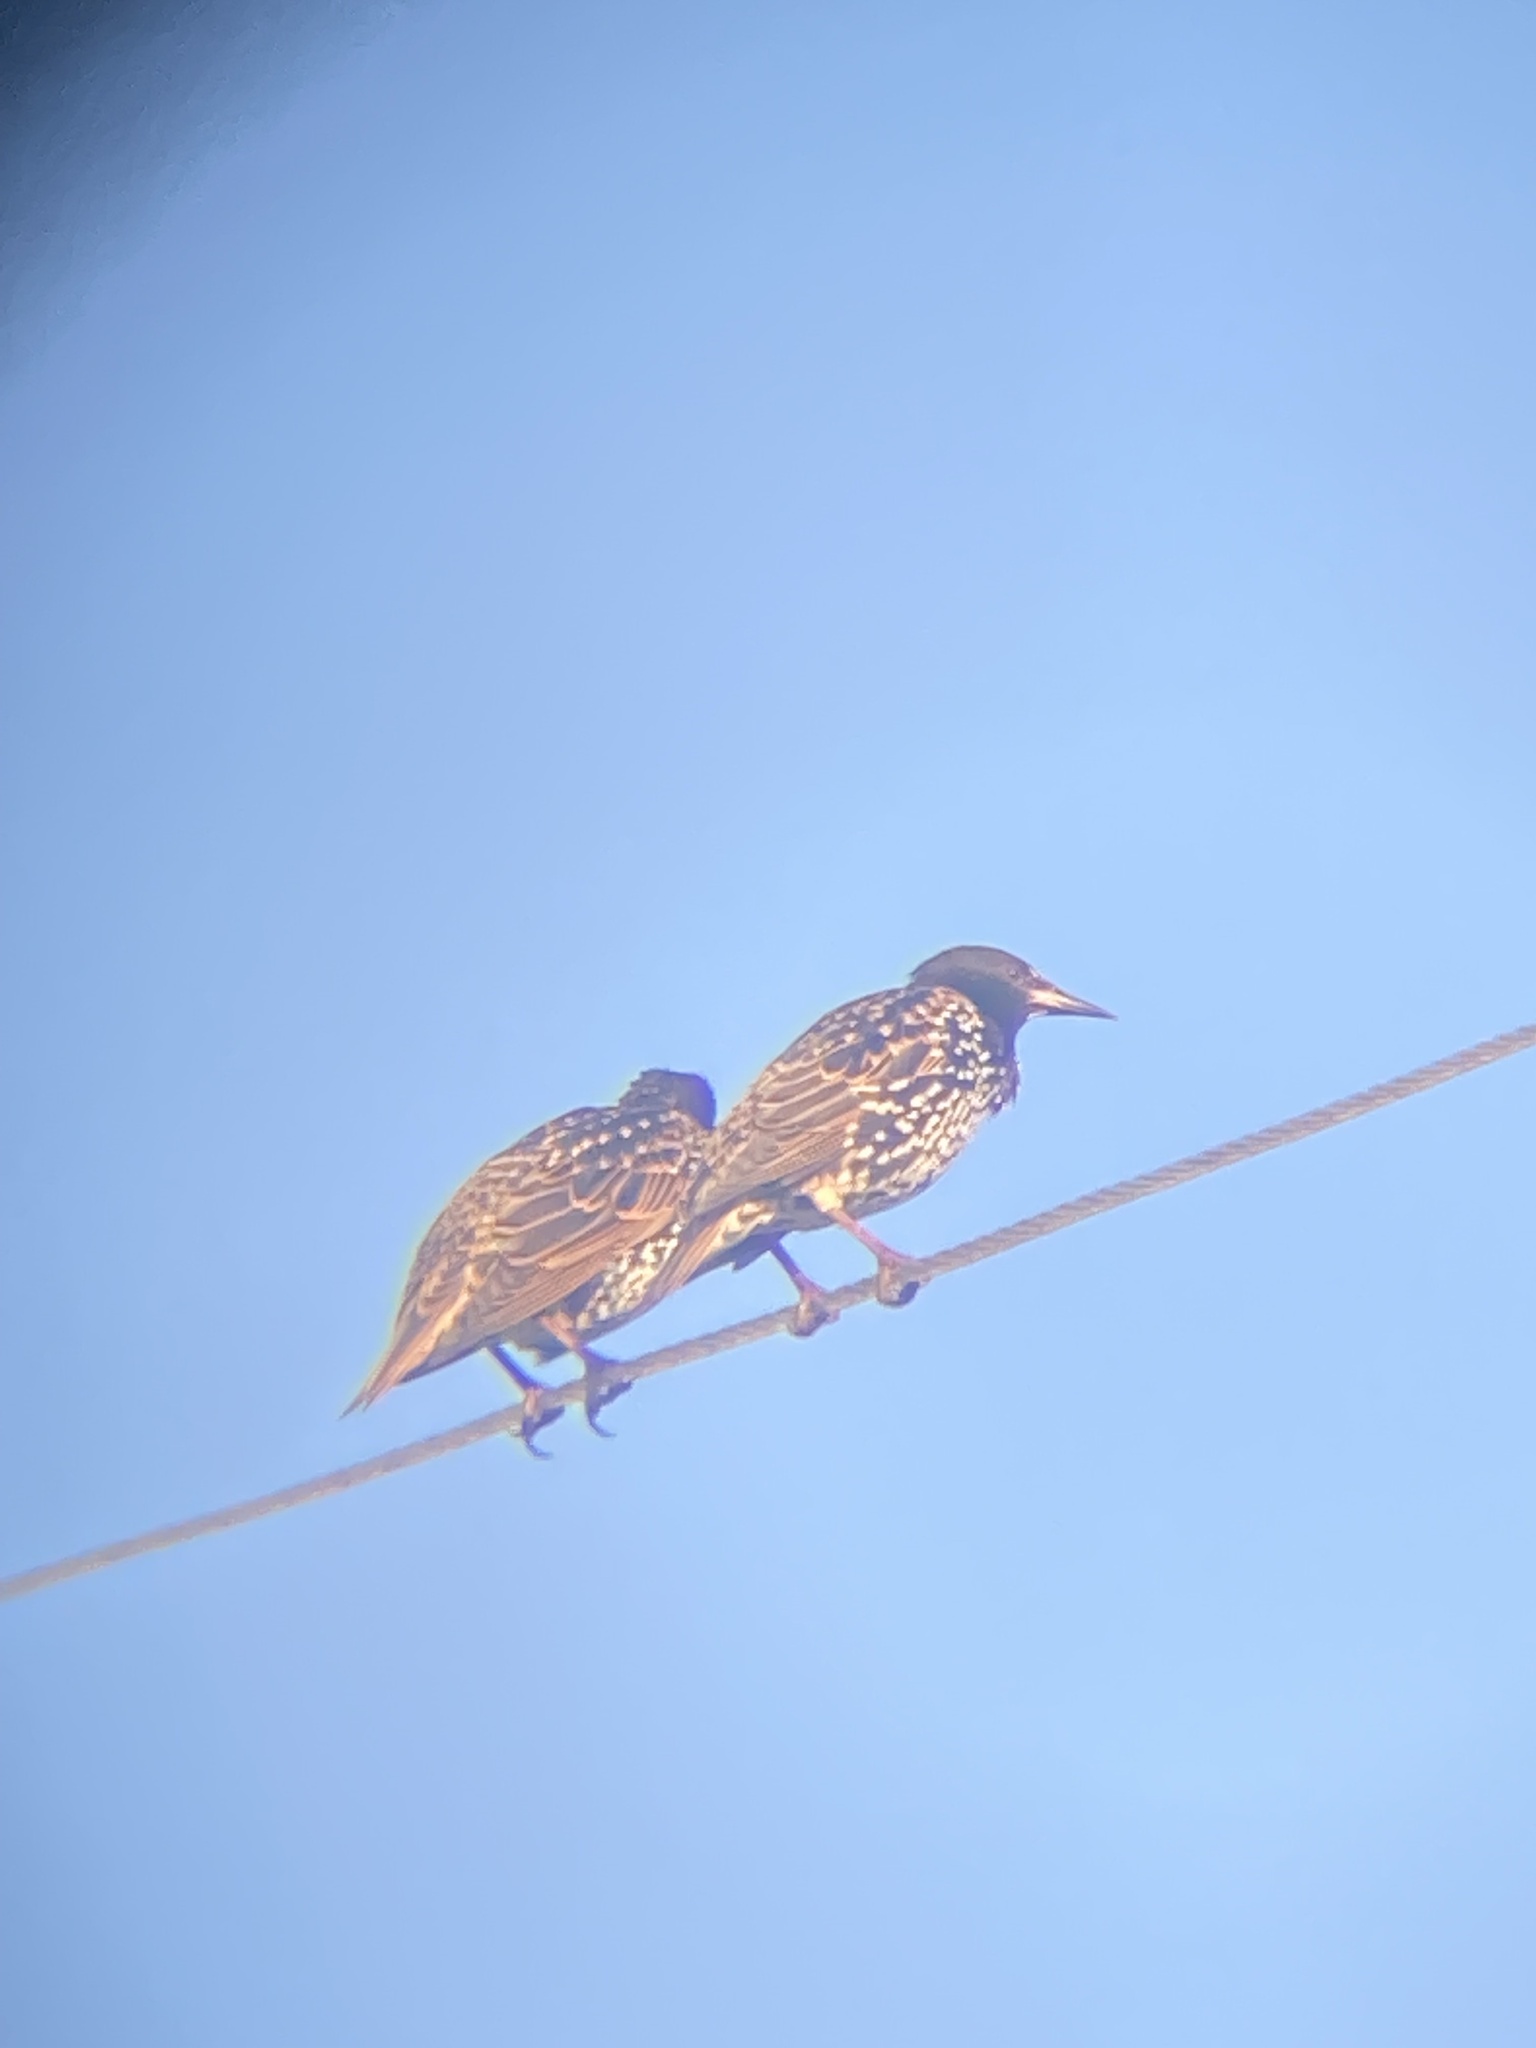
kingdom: Animalia
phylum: Chordata
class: Aves
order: Passeriformes
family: Sturnidae
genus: Sturnus
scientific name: Sturnus vulgaris
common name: Common starling
